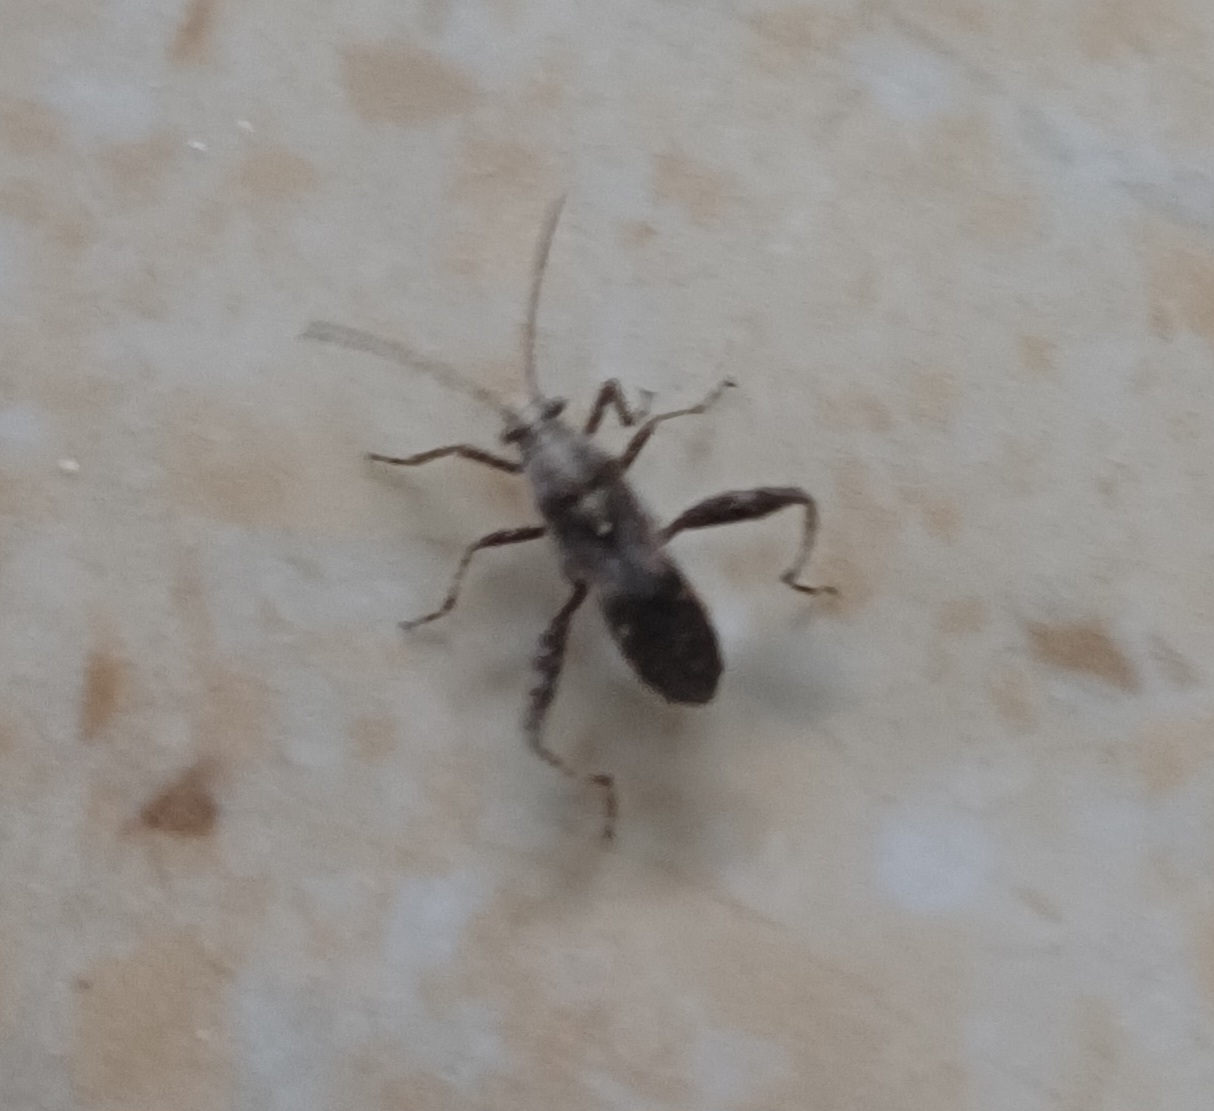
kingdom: Animalia
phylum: Arthropoda
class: Insecta
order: Hemiptera
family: Alydidae
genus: Tenosius
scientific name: Tenosius proletarius
